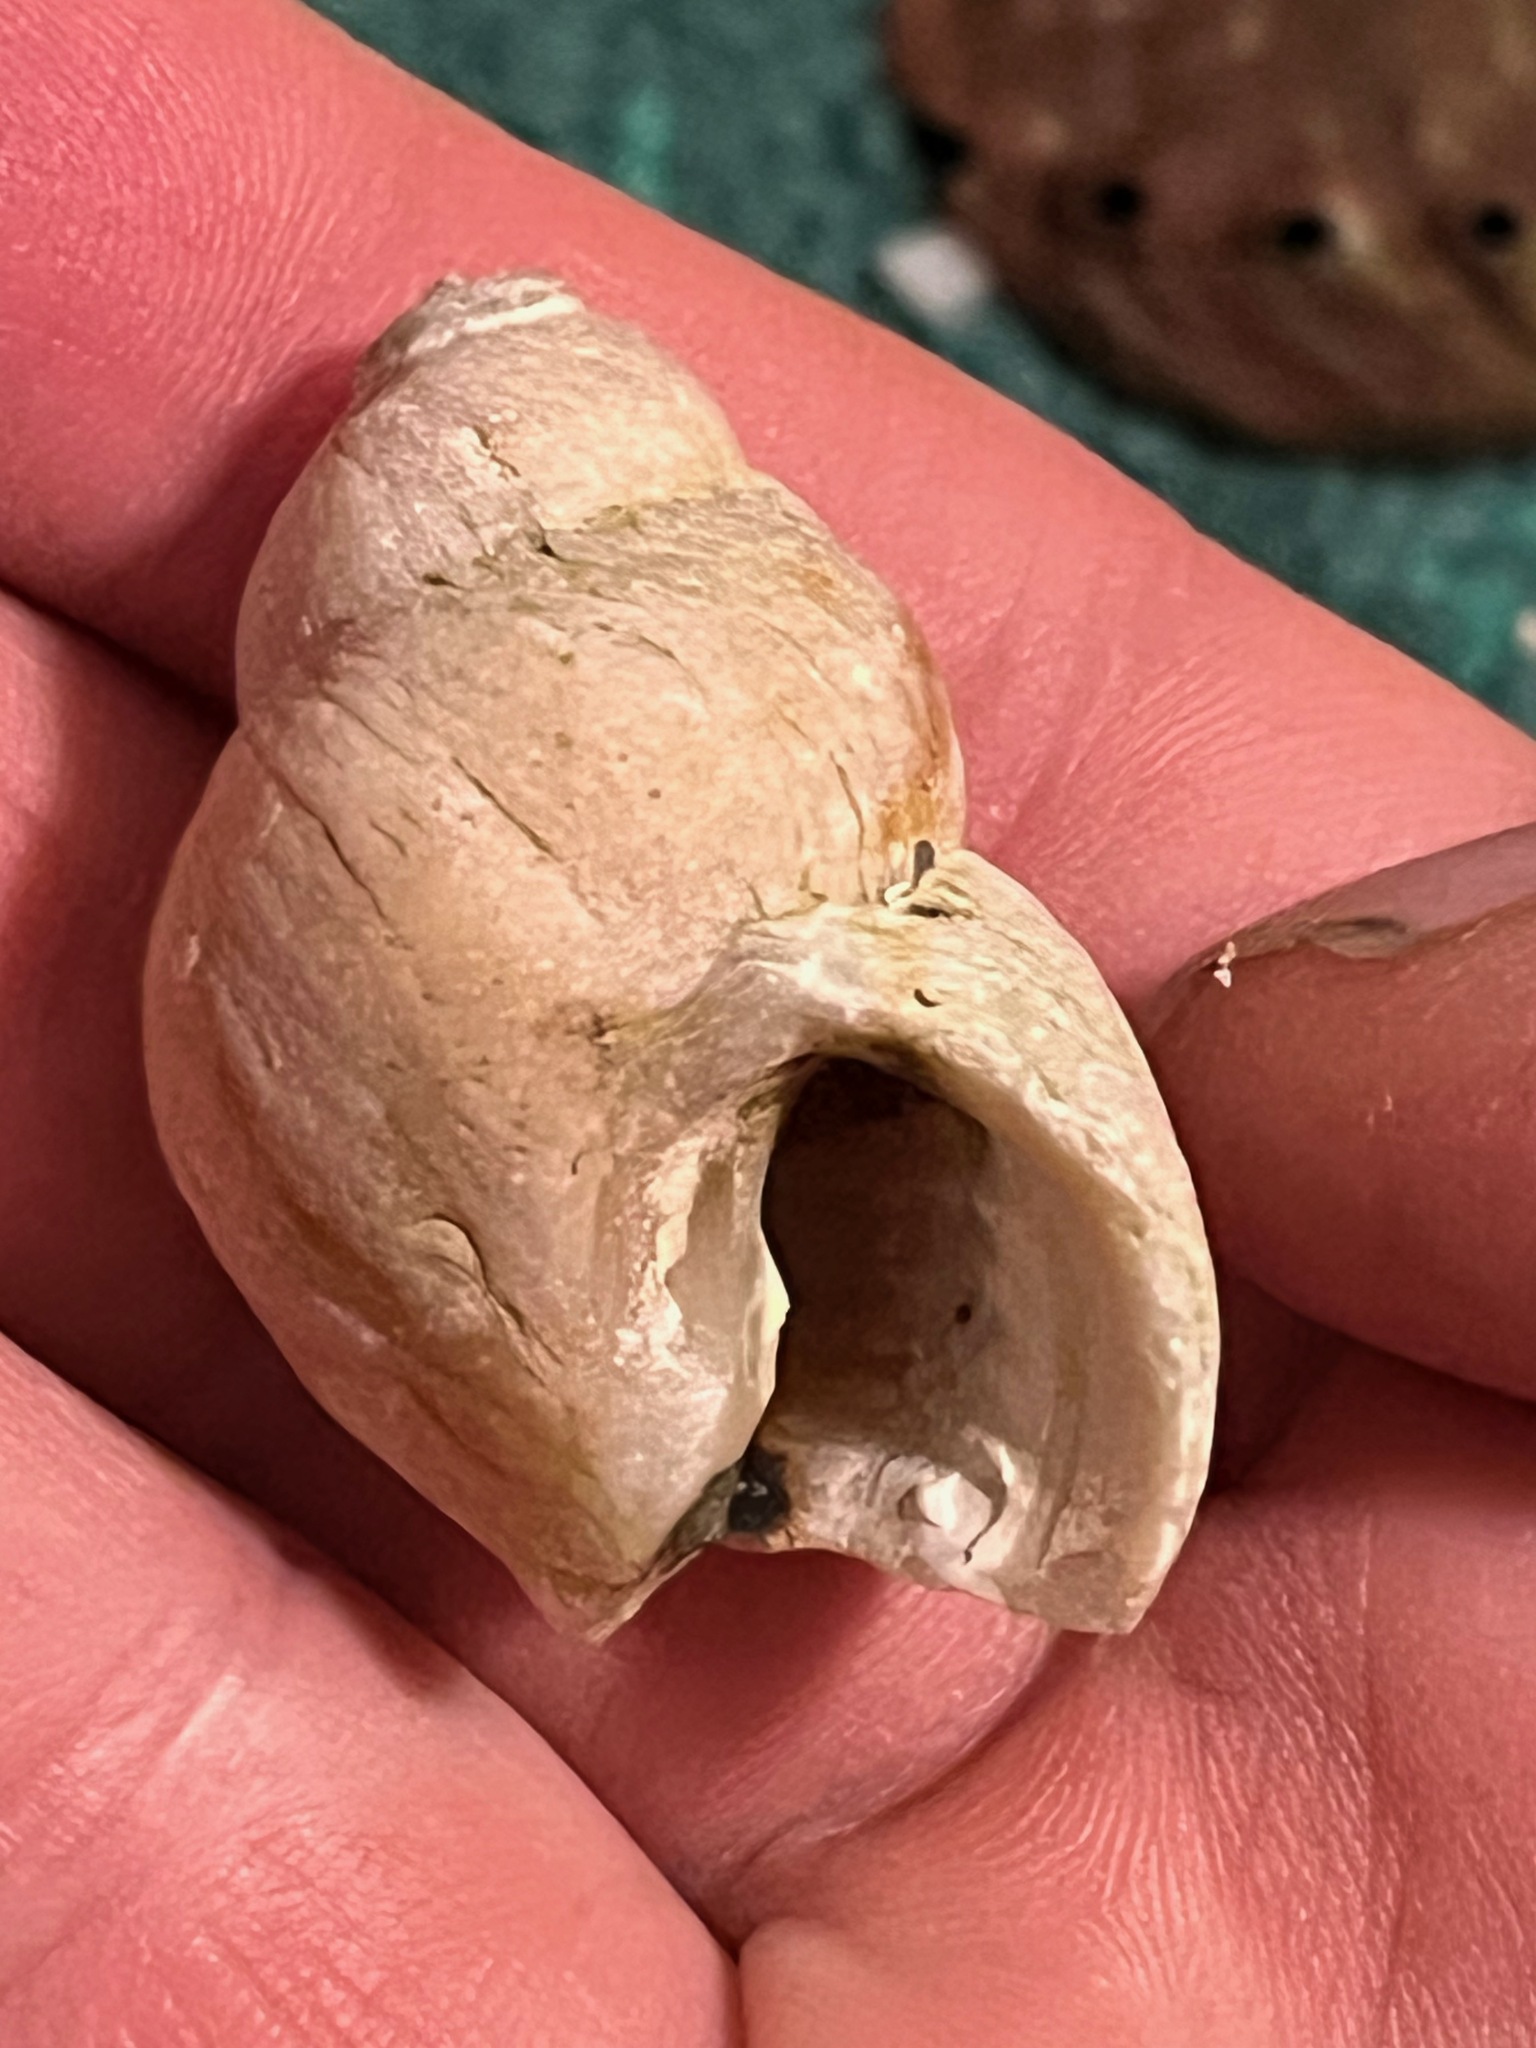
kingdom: Animalia
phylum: Mollusca
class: Gastropoda
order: Neogastropoda
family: Muricidae
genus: Nucella
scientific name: Nucella lamellosa
